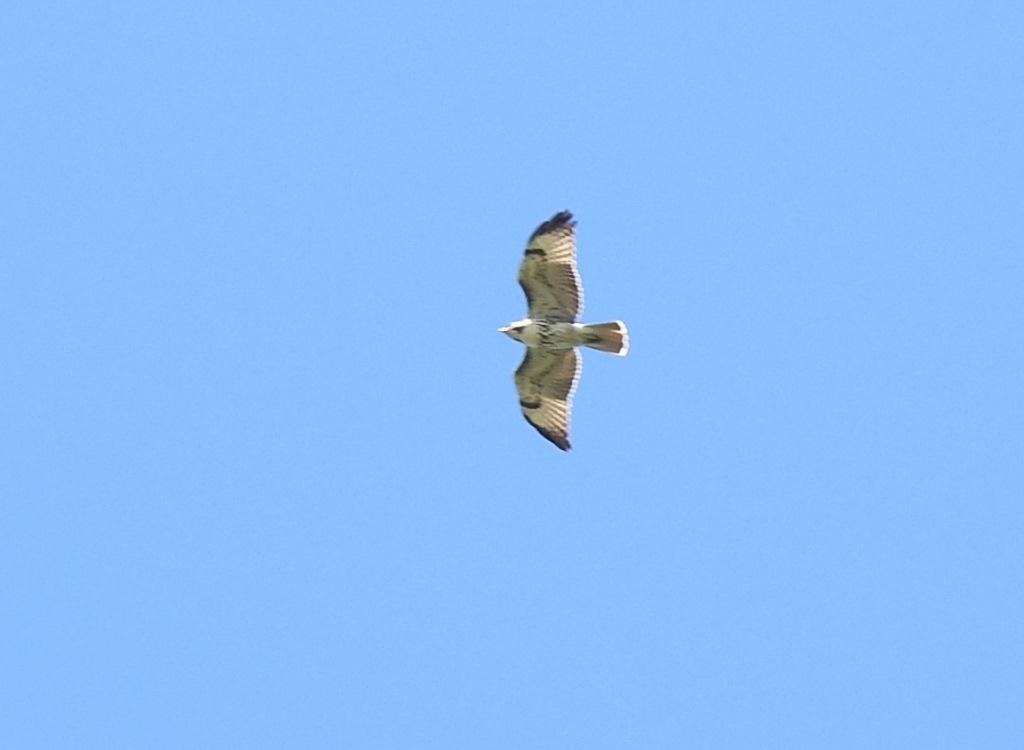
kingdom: Animalia
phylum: Chordata
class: Aves
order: Accipitriformes
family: Accipitridae
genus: Buteo
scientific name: Buteo jamaicensis
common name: Red-tailed hawk
